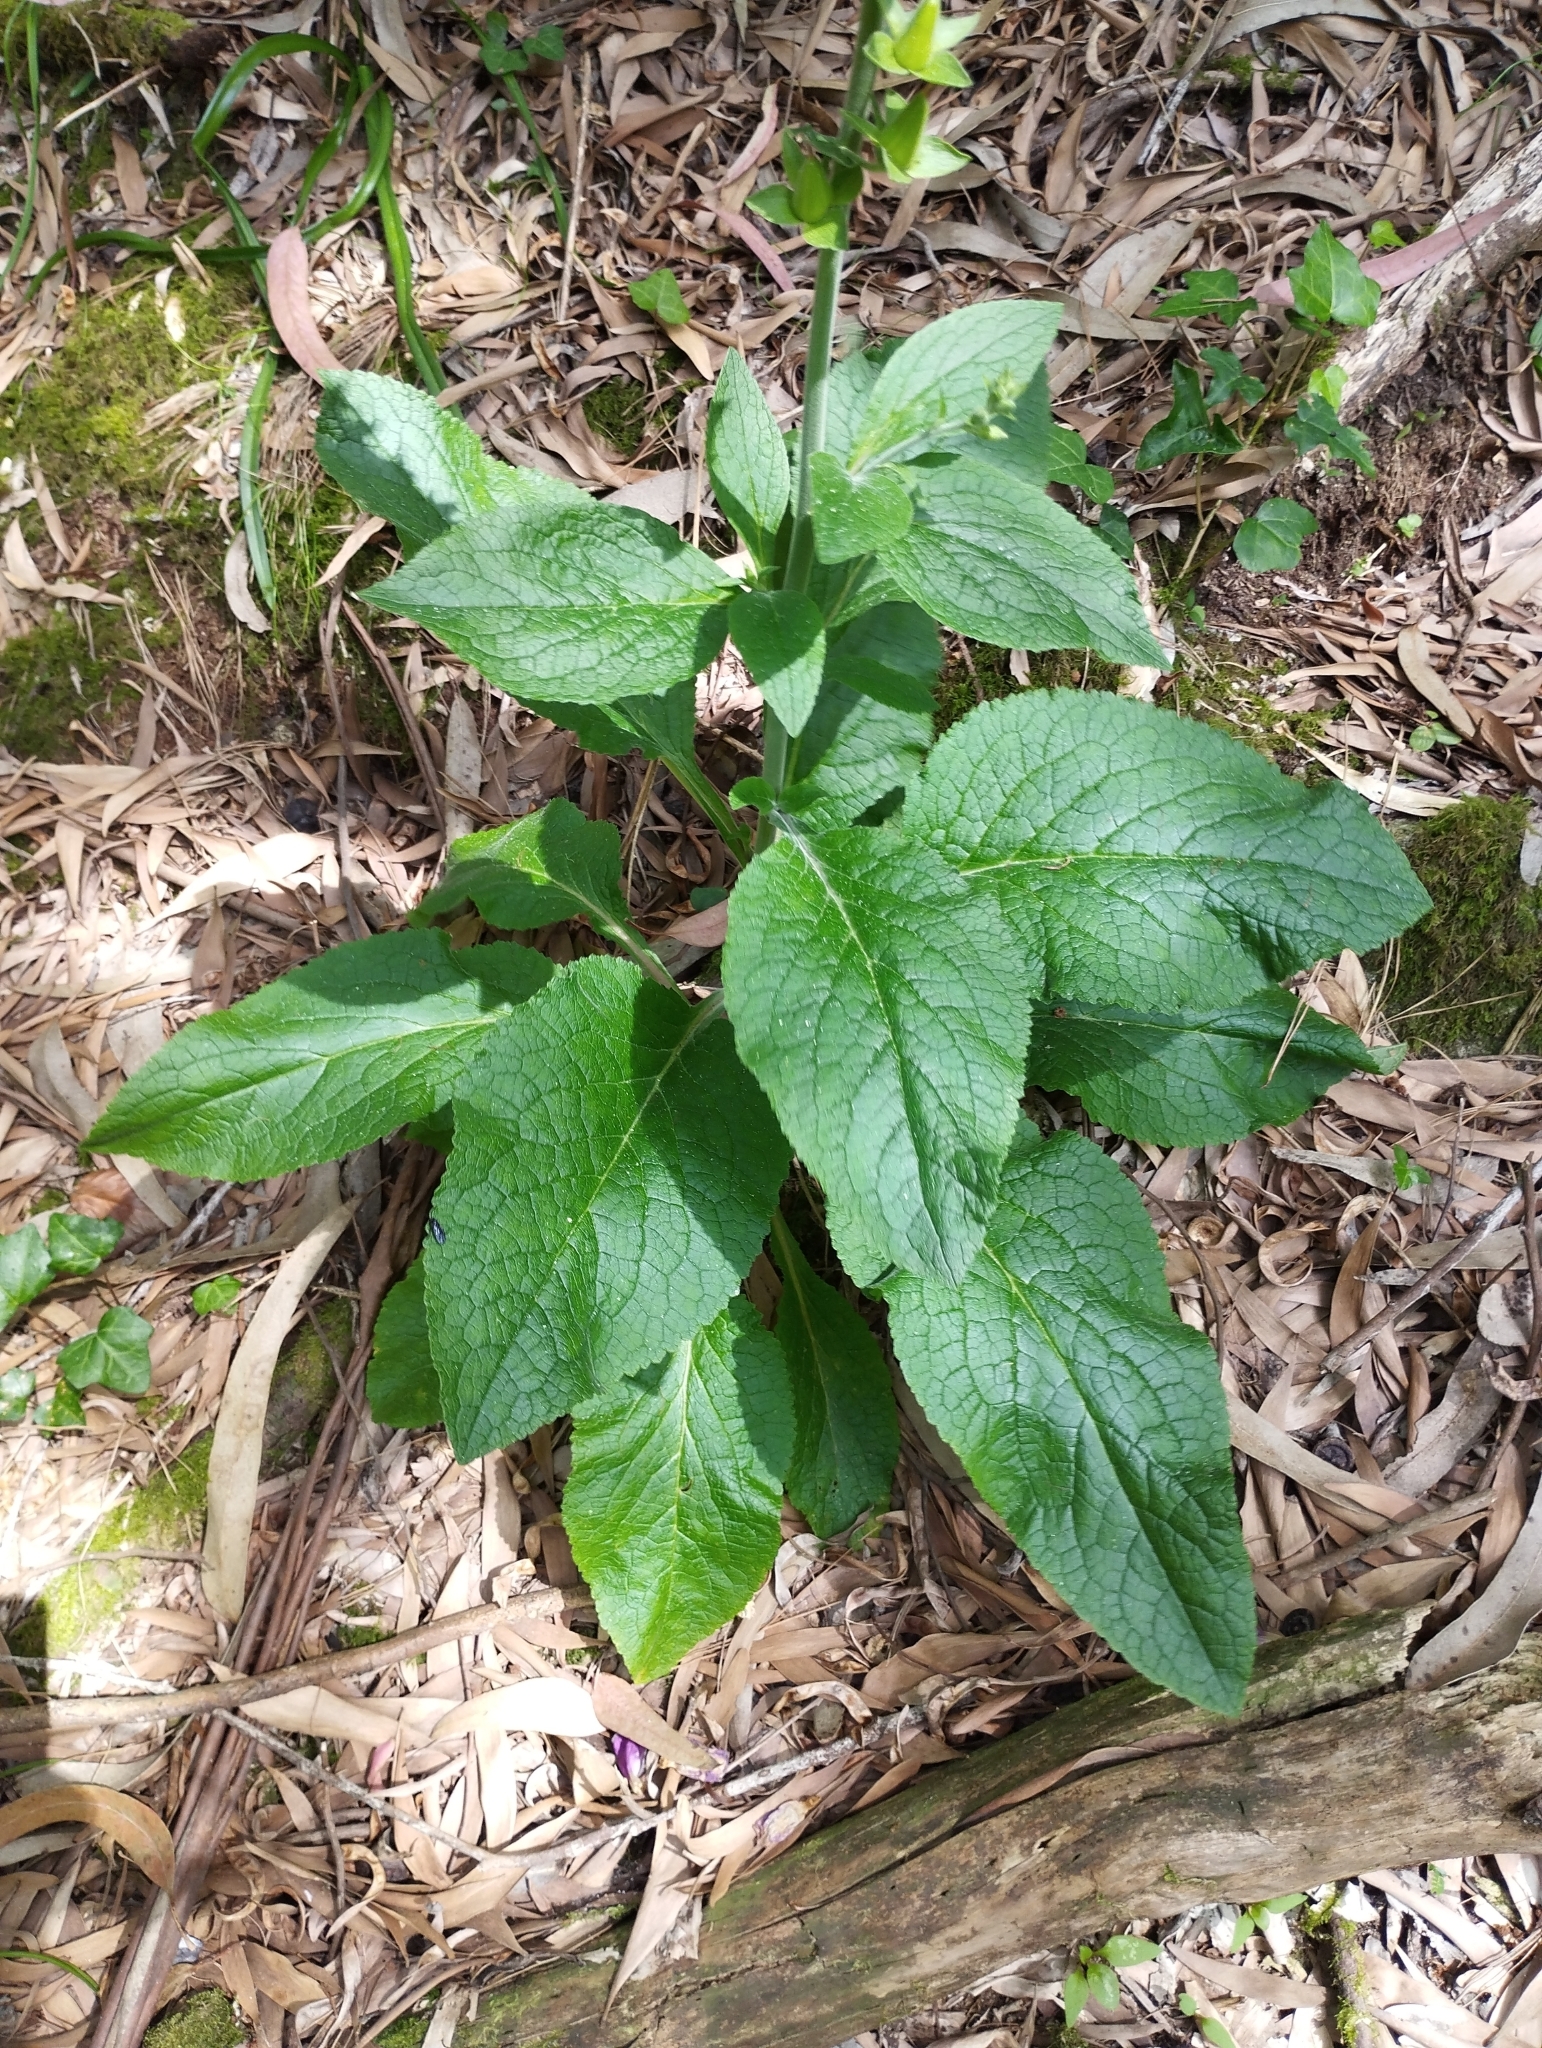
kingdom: Plantae
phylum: Tracheophyta
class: Magnoliopsida
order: Lamiales
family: Plantaginaceae
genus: Digitalis
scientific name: Digitalis purpurea
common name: Foxglove
